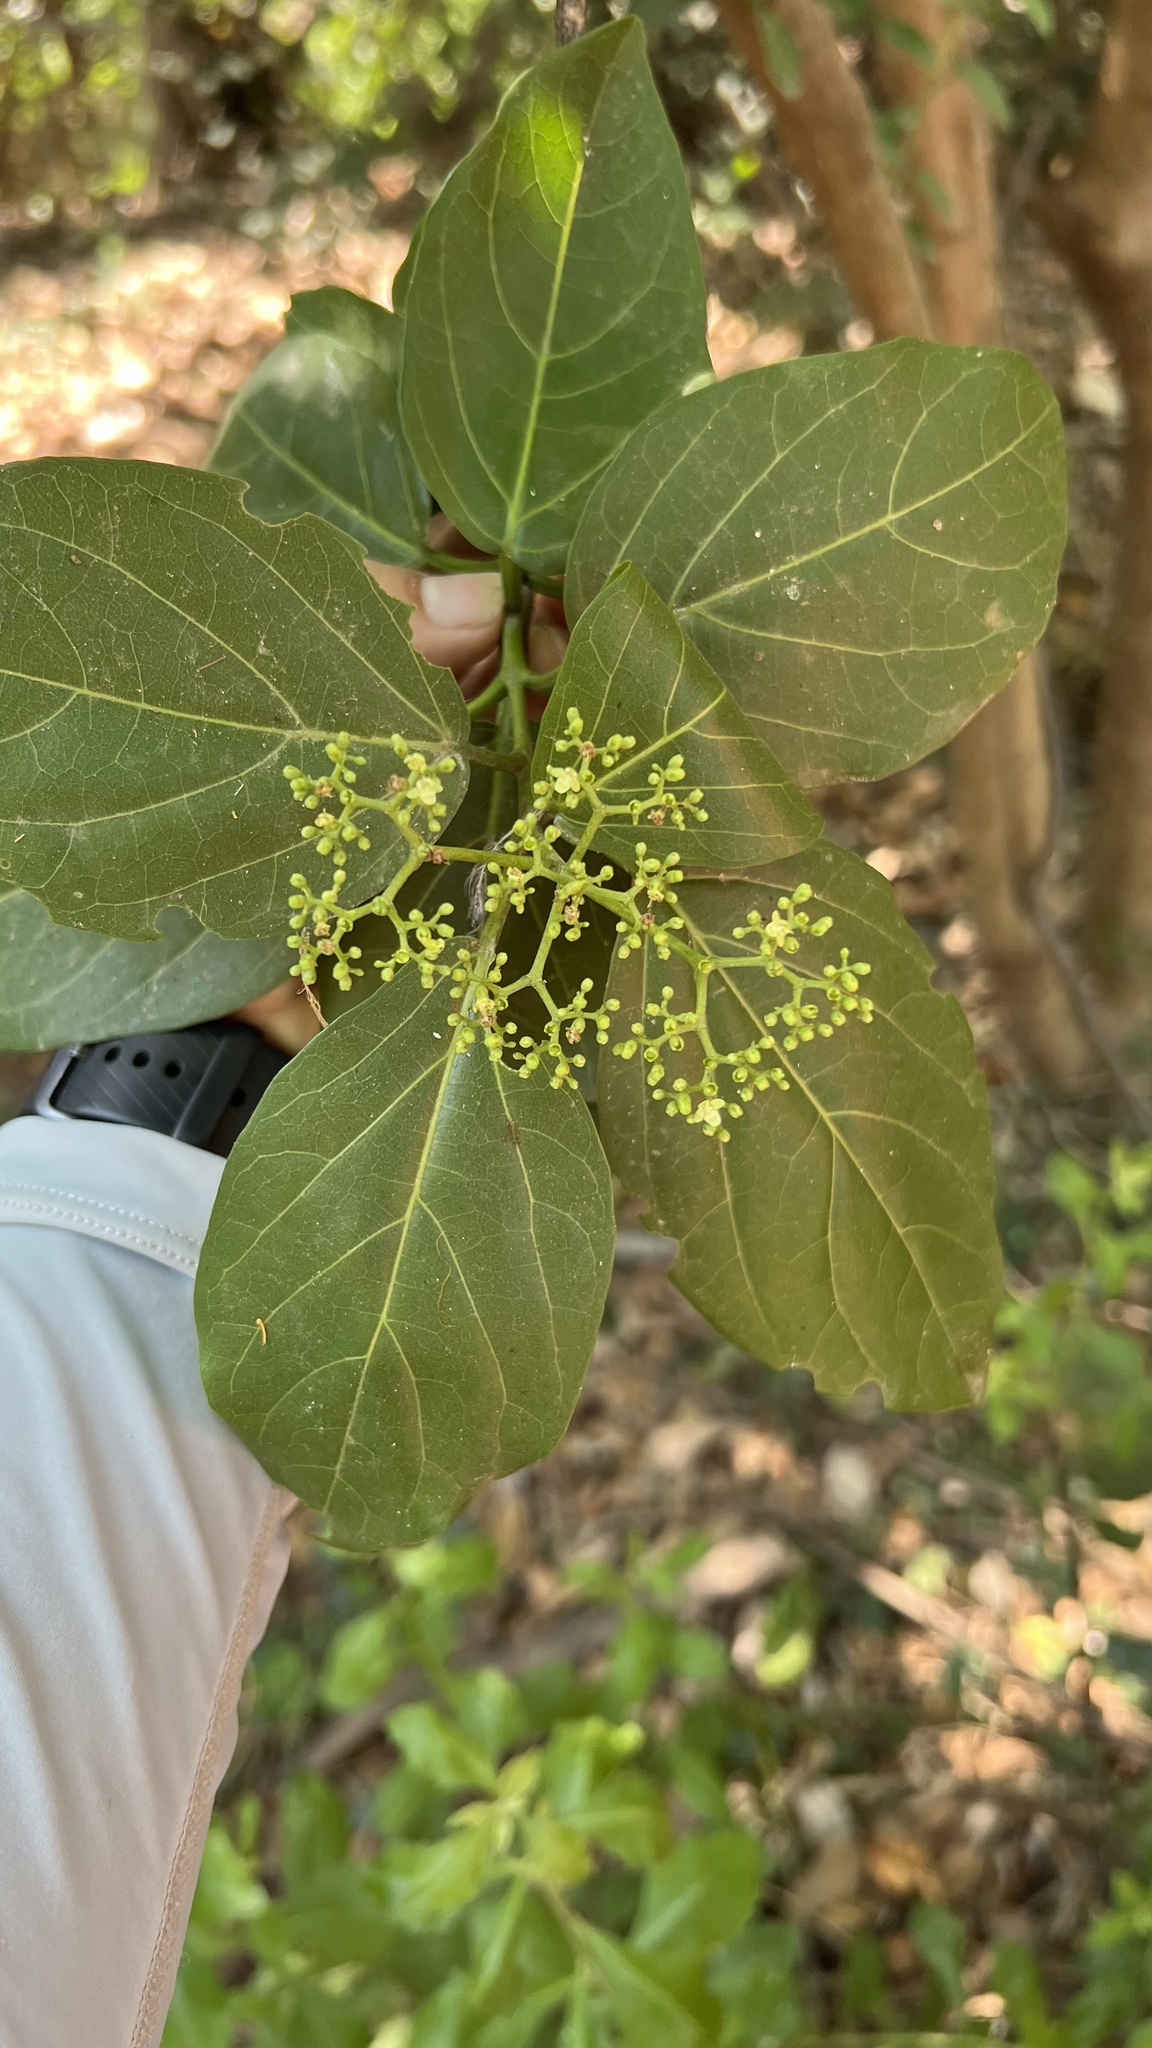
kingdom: Plantae
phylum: Tracheophyta
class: Magnoliopsida
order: Lamiales
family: Lamiaceae
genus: Premna
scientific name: Premna serratifolia
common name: Bastard guelder
